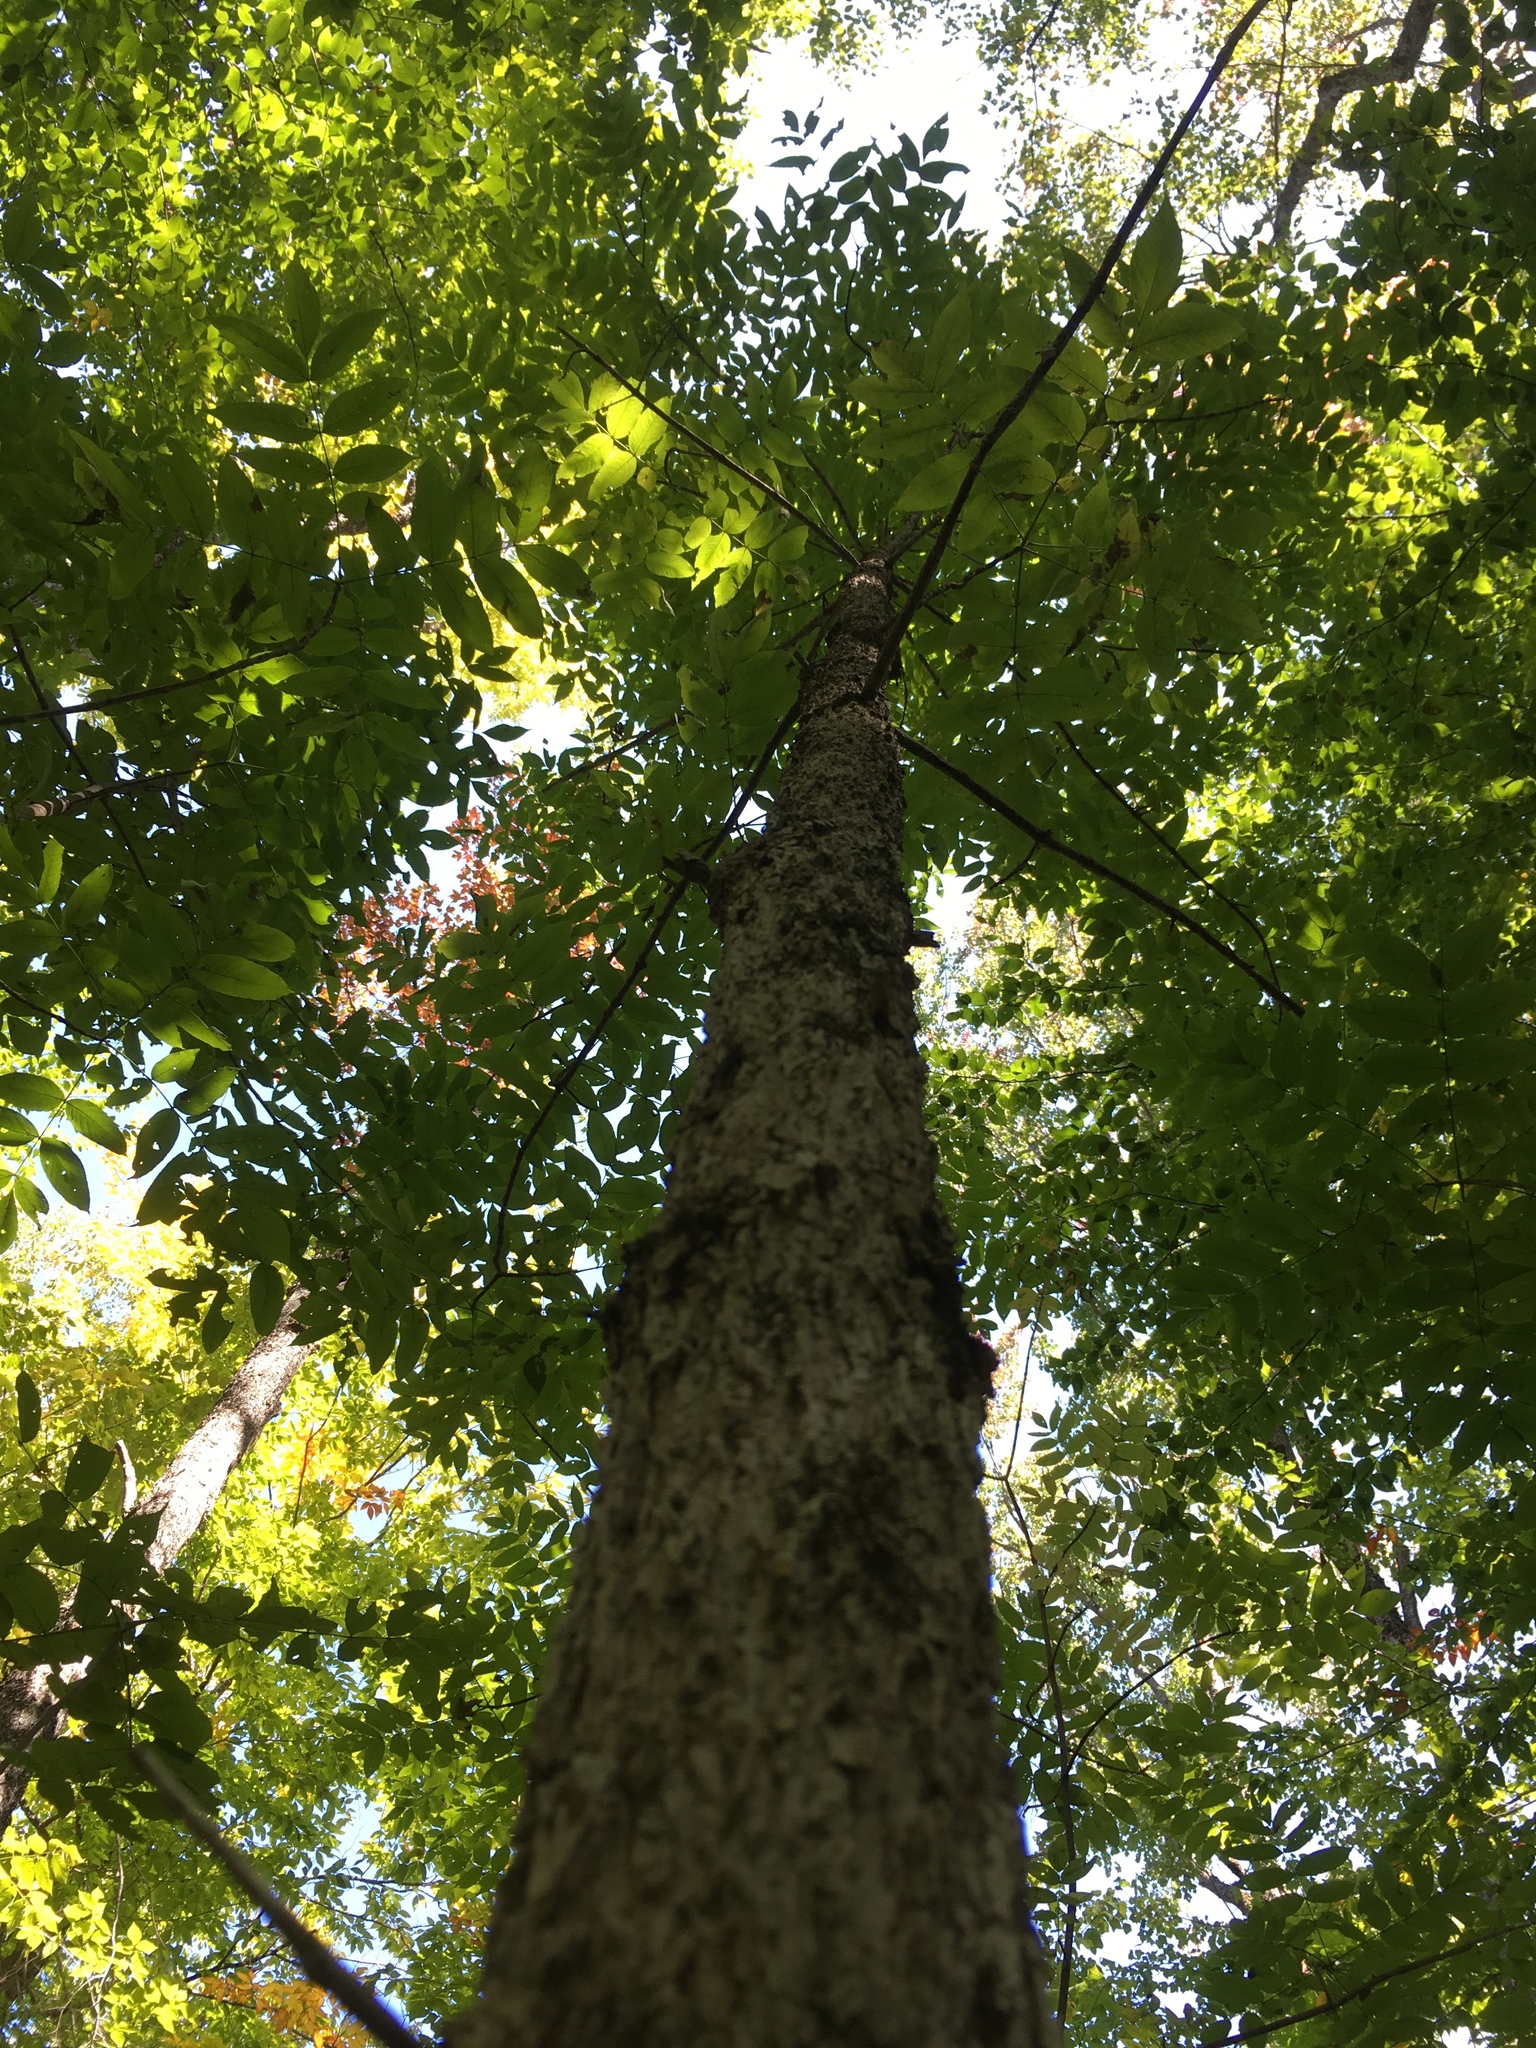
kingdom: Plantae
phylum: Tracheophyta
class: Magnoliopsida
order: Lamiales
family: Oleaceae
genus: Fraxinus
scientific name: Fraxinus nigra
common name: Black ash
